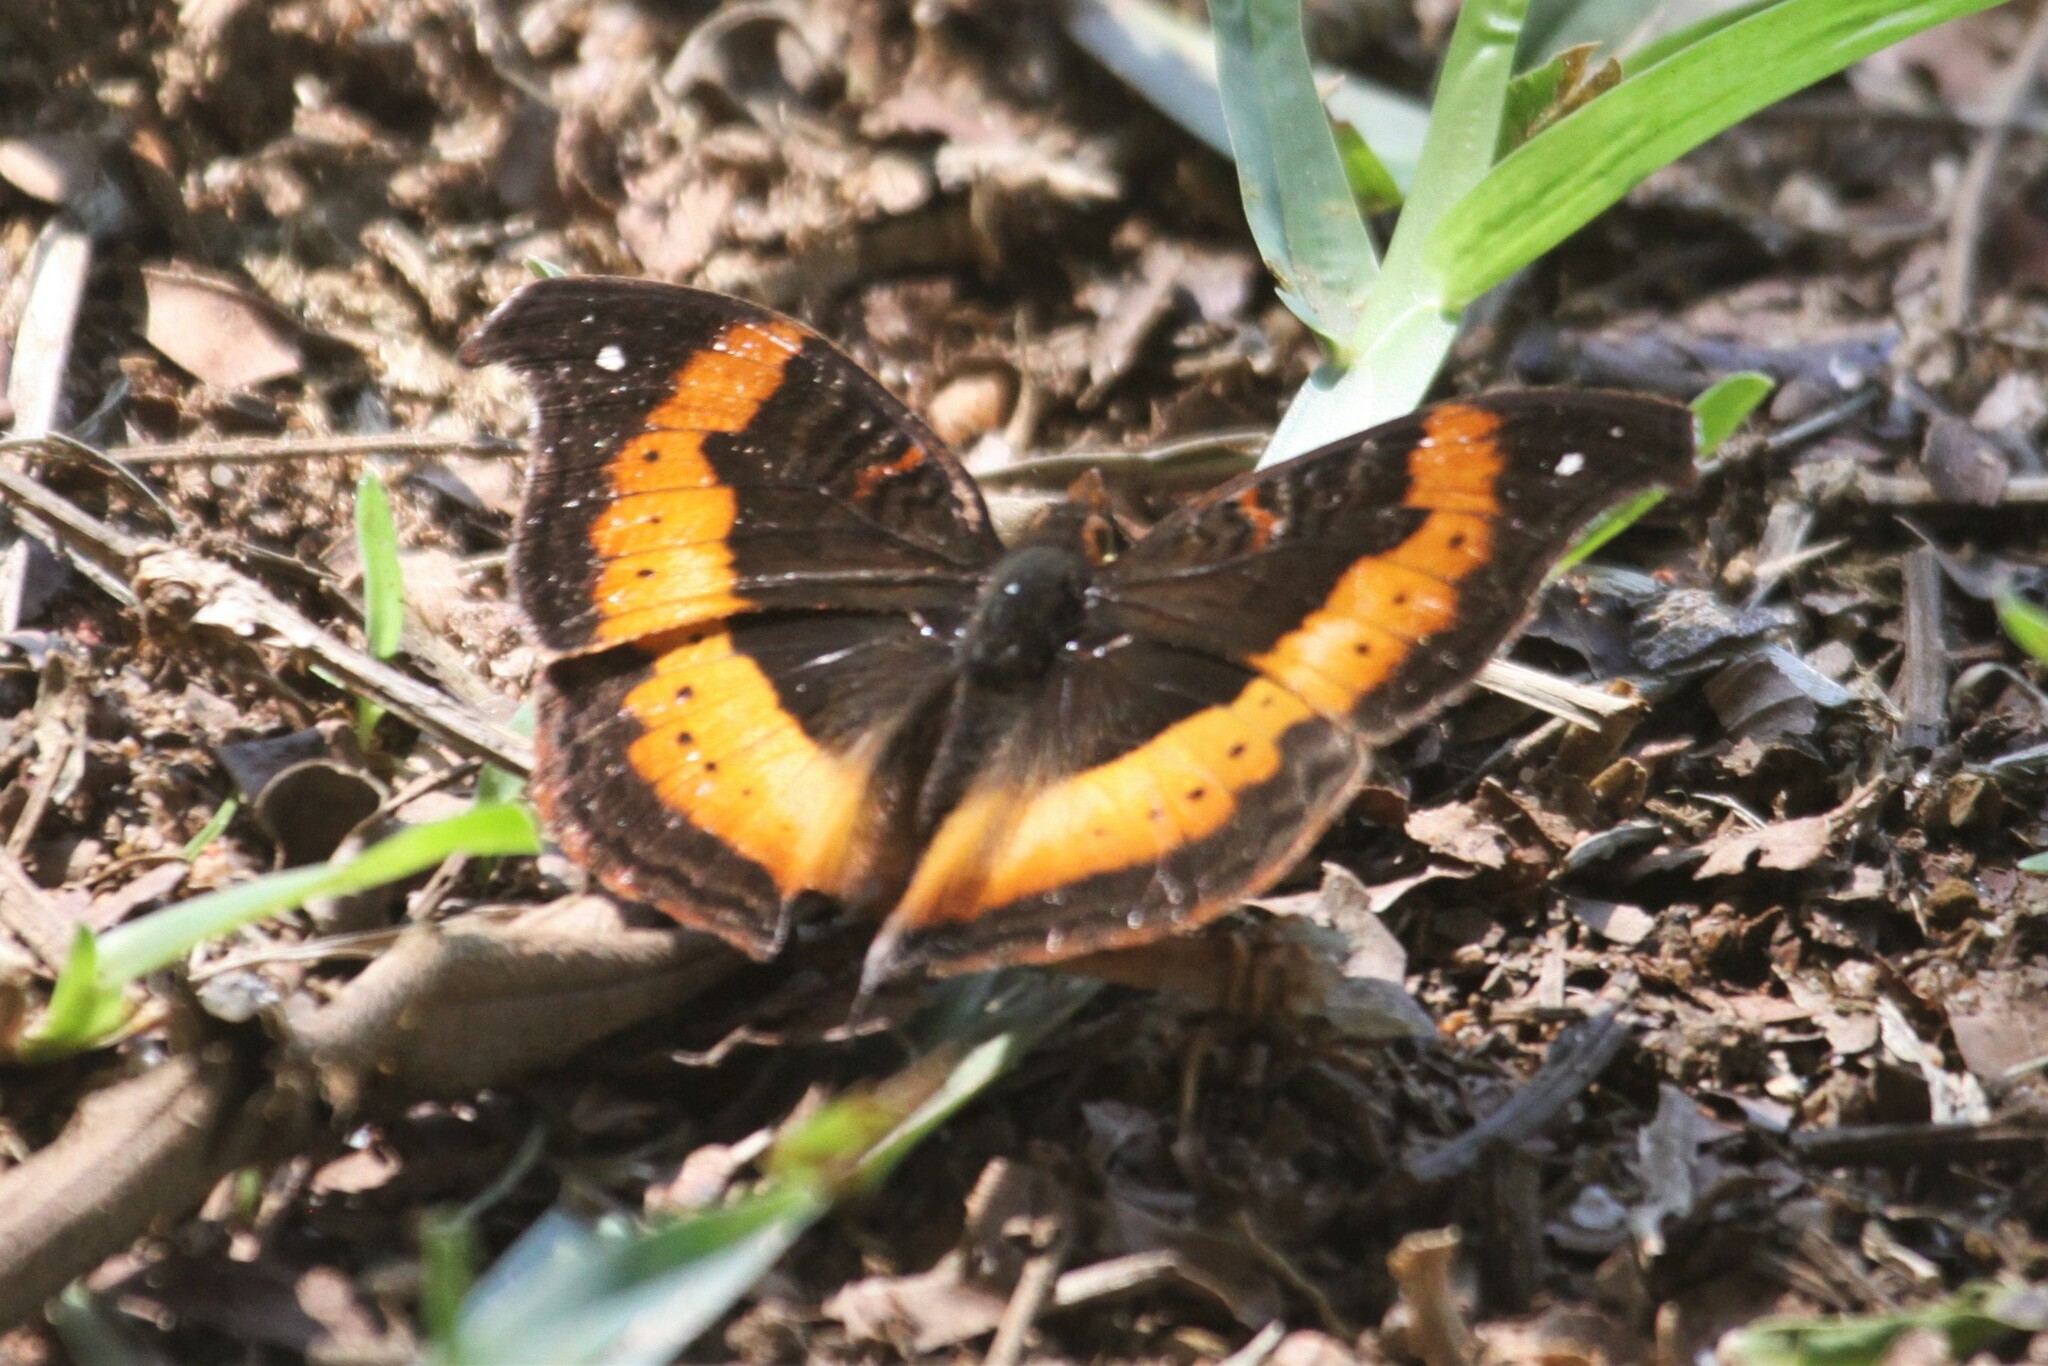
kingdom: Animalia
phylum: Arthropoda
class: Insecta
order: Lepidoptera
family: Nymphalidae
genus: Junonia
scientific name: Junonia tugela
